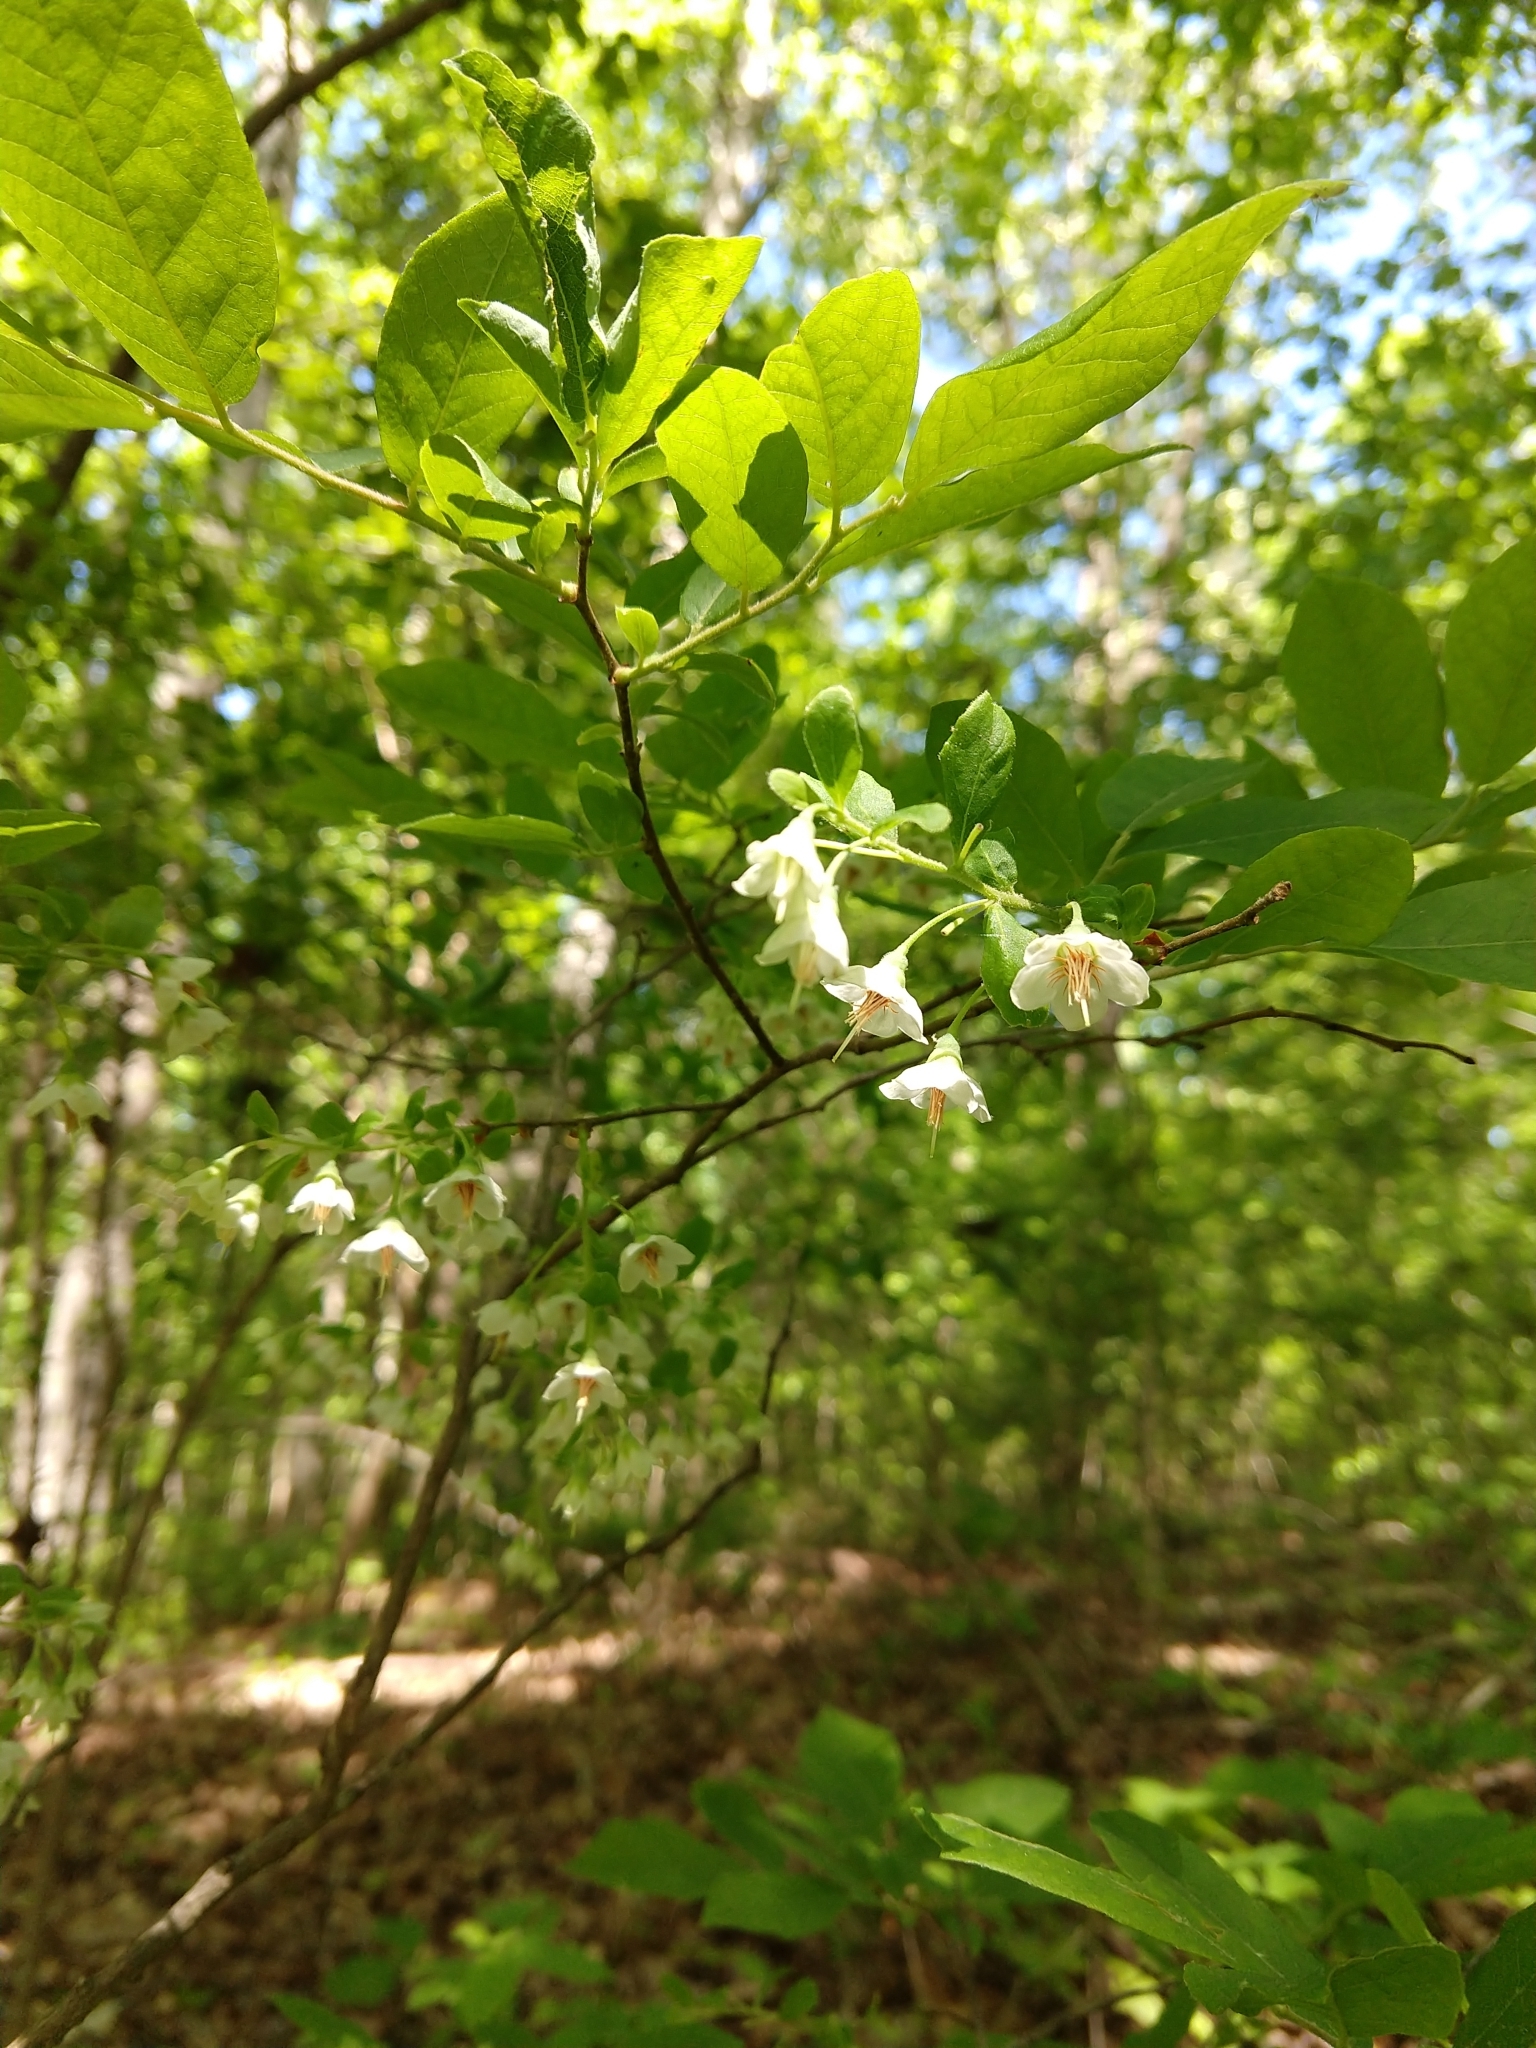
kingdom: Plantae
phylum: Tracheophyta
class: Magnoliopsida
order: Ericales
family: Ericaceae
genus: Vaccinium
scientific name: Vaccinium stamineum
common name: Deerberry
